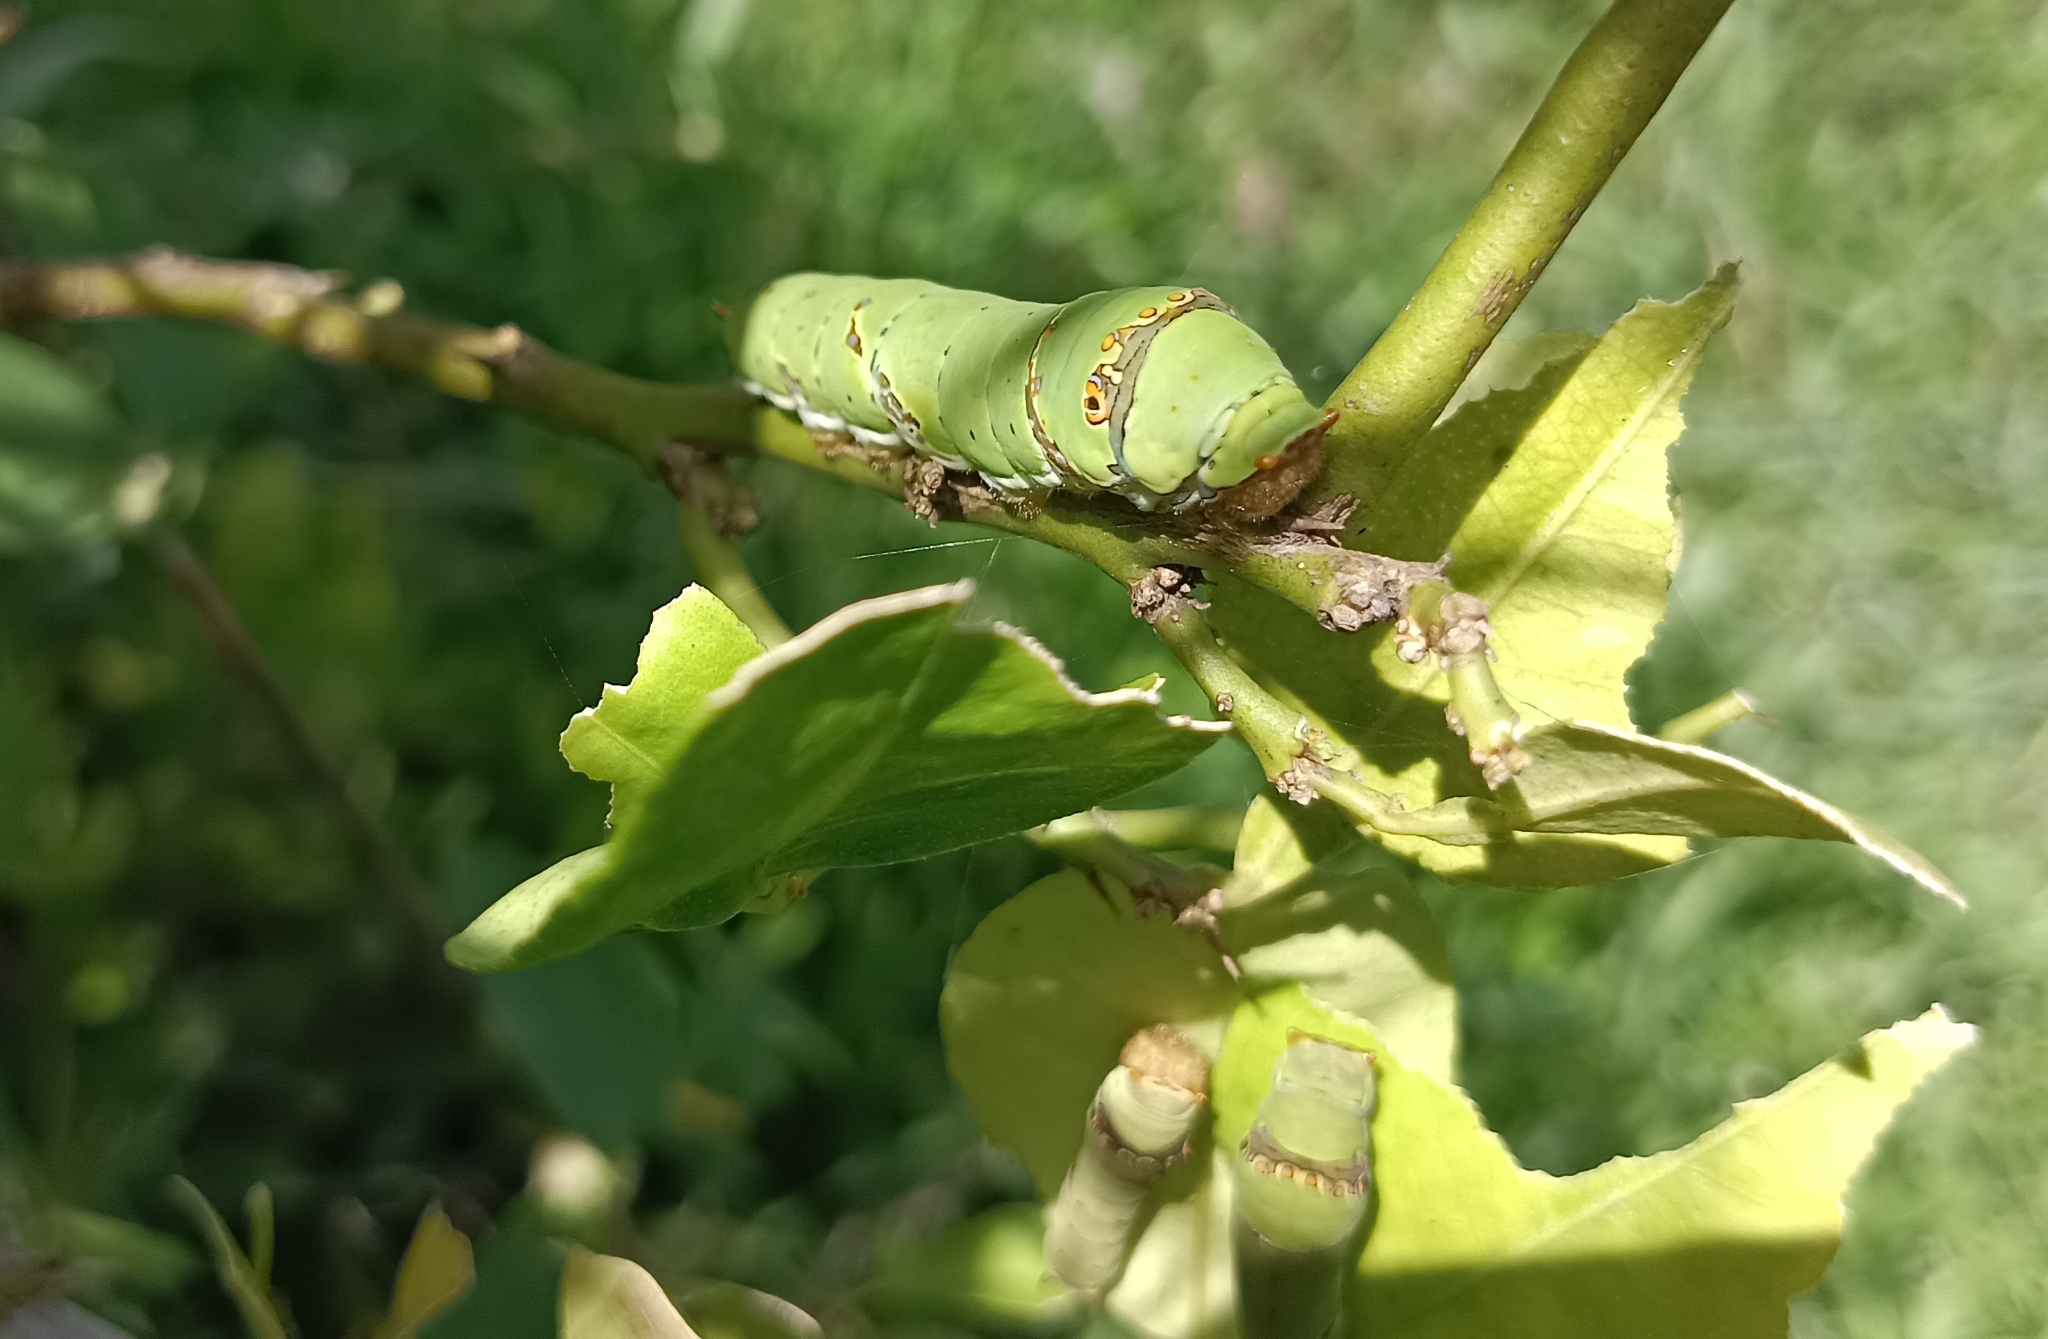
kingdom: Animalia
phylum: Arthropoda
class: Insecta
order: Lepidoptera
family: Papilionidae
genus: Papilio
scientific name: Papilio demoleus
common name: Lime butterfly
